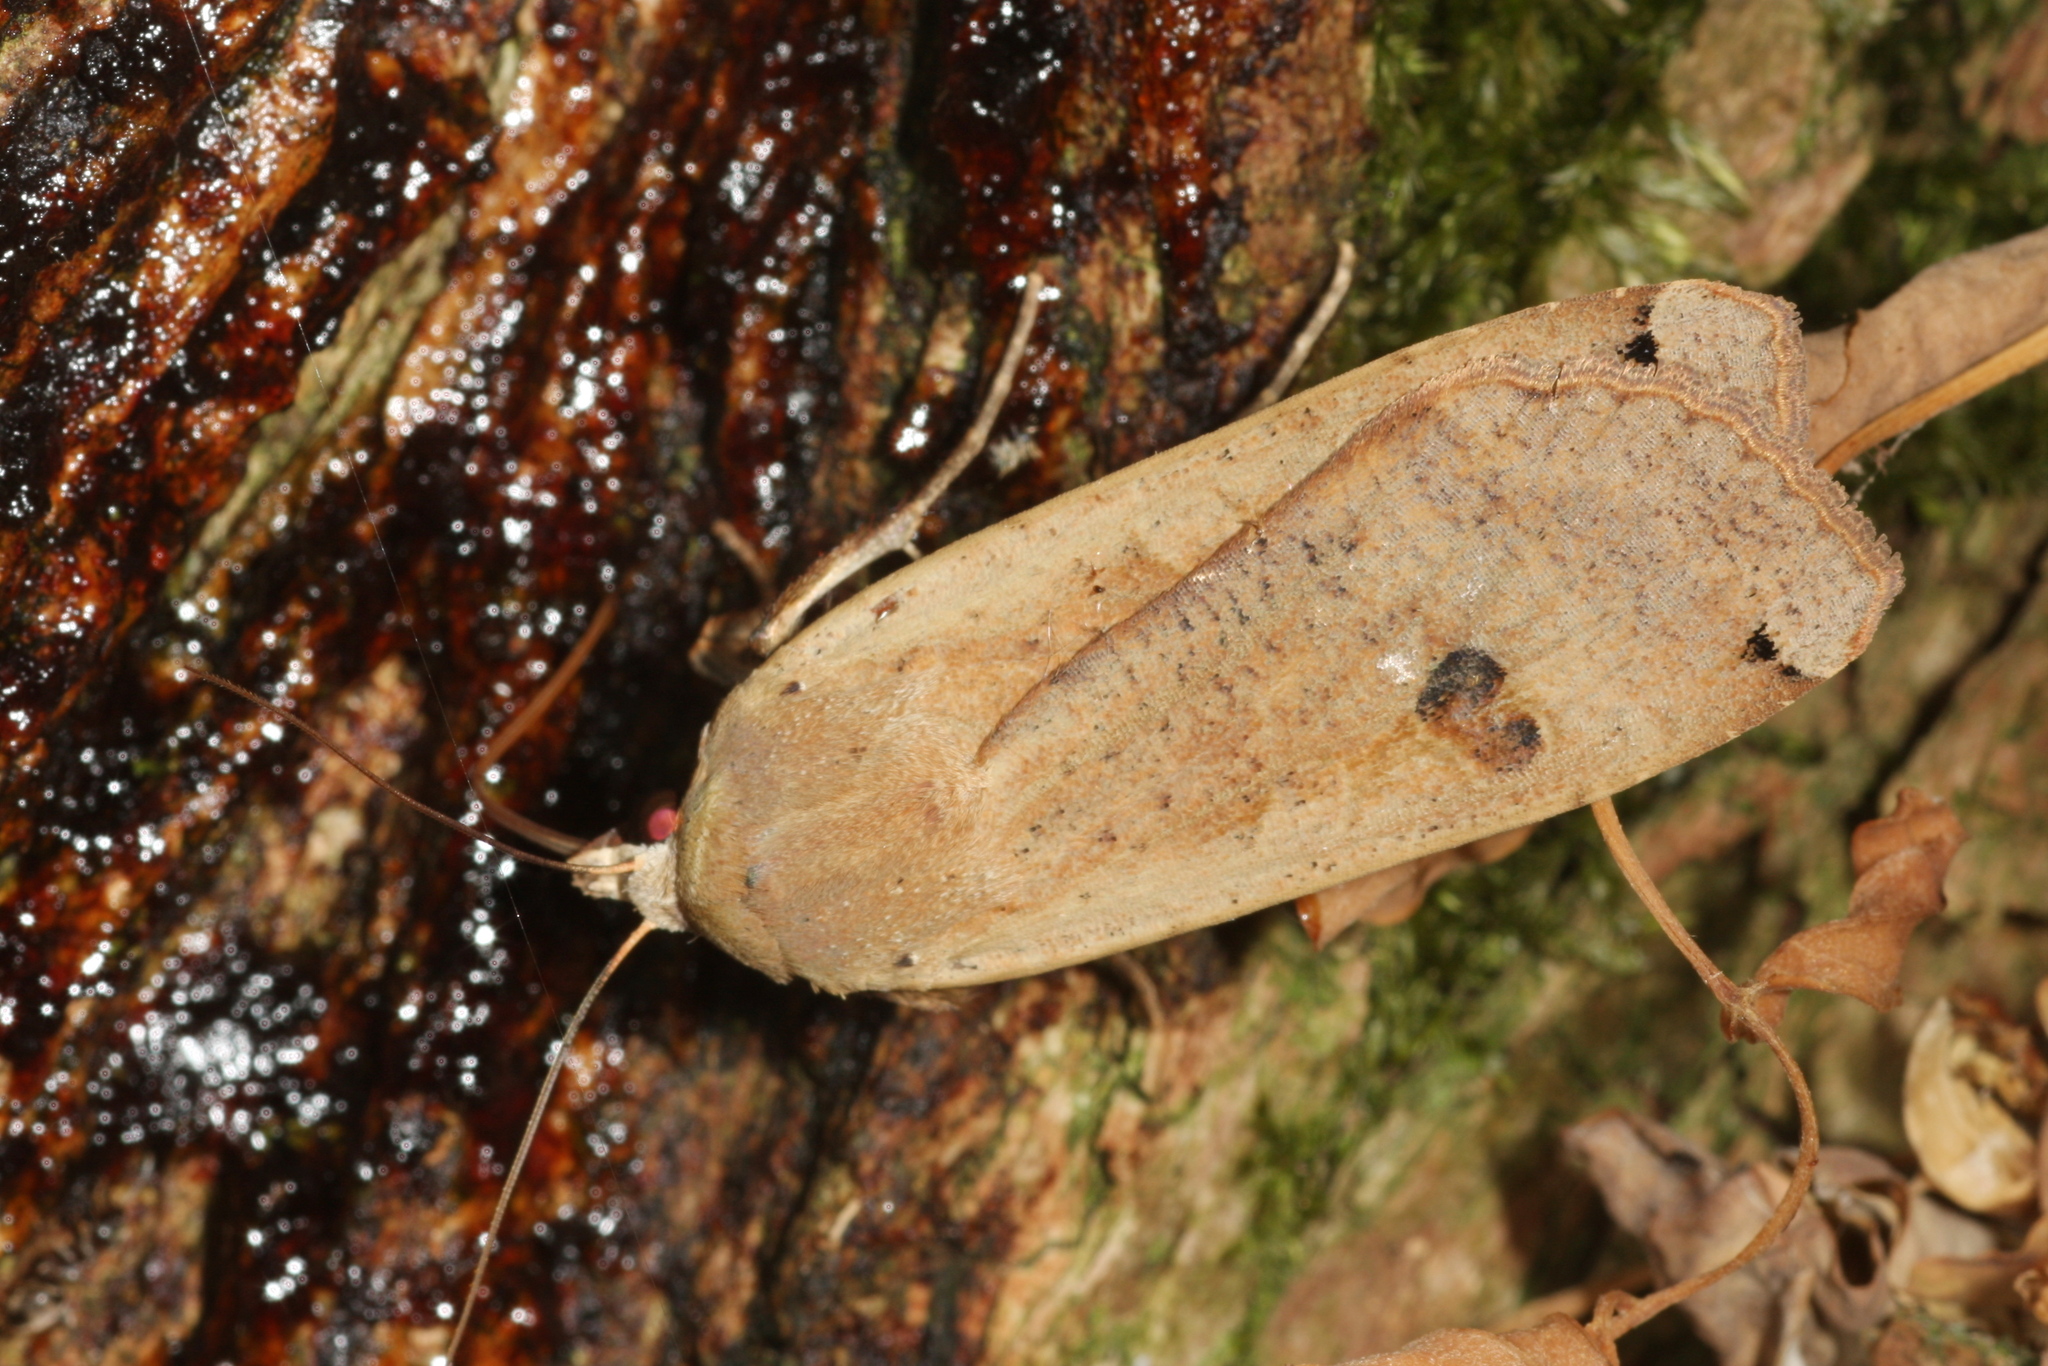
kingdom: Animalia
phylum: Arthropoda
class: Insecta
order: Lepidoptera
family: Noctuidae
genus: Noctua
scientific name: Noctua pronuba
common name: Large yellow underwing
